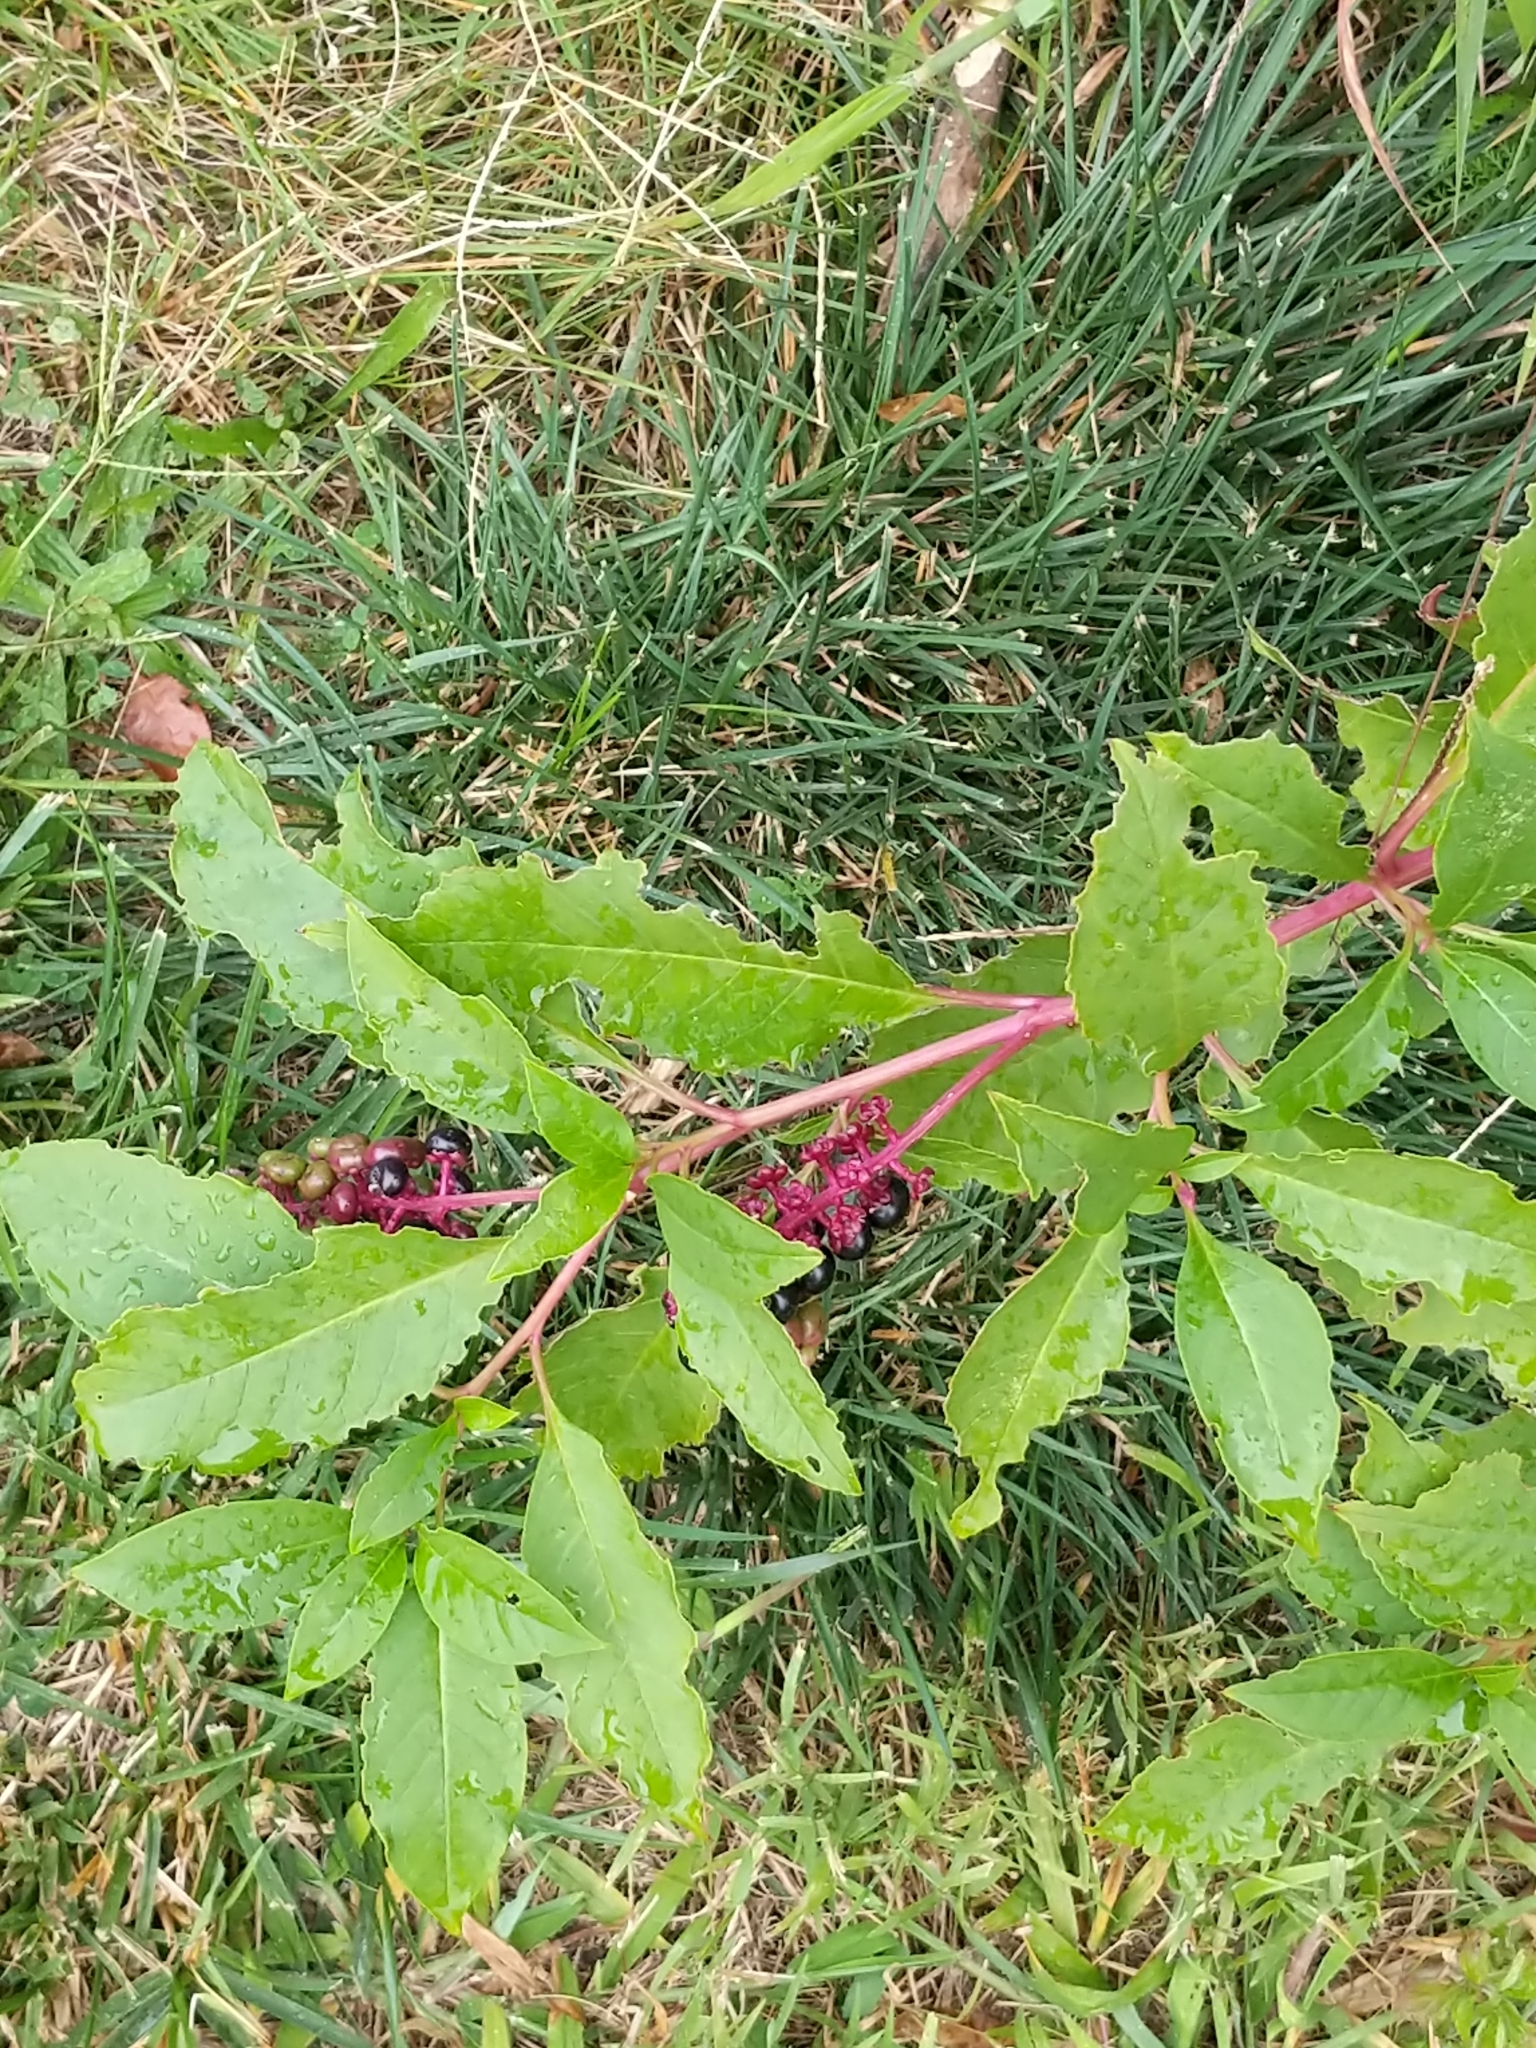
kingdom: Plantae
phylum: Tracheophyta
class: Magnoliopsida
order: Caryophyllales
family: Phytolaccaceae
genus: Phytolacca
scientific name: Phytolacca americana
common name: American pokeweed
